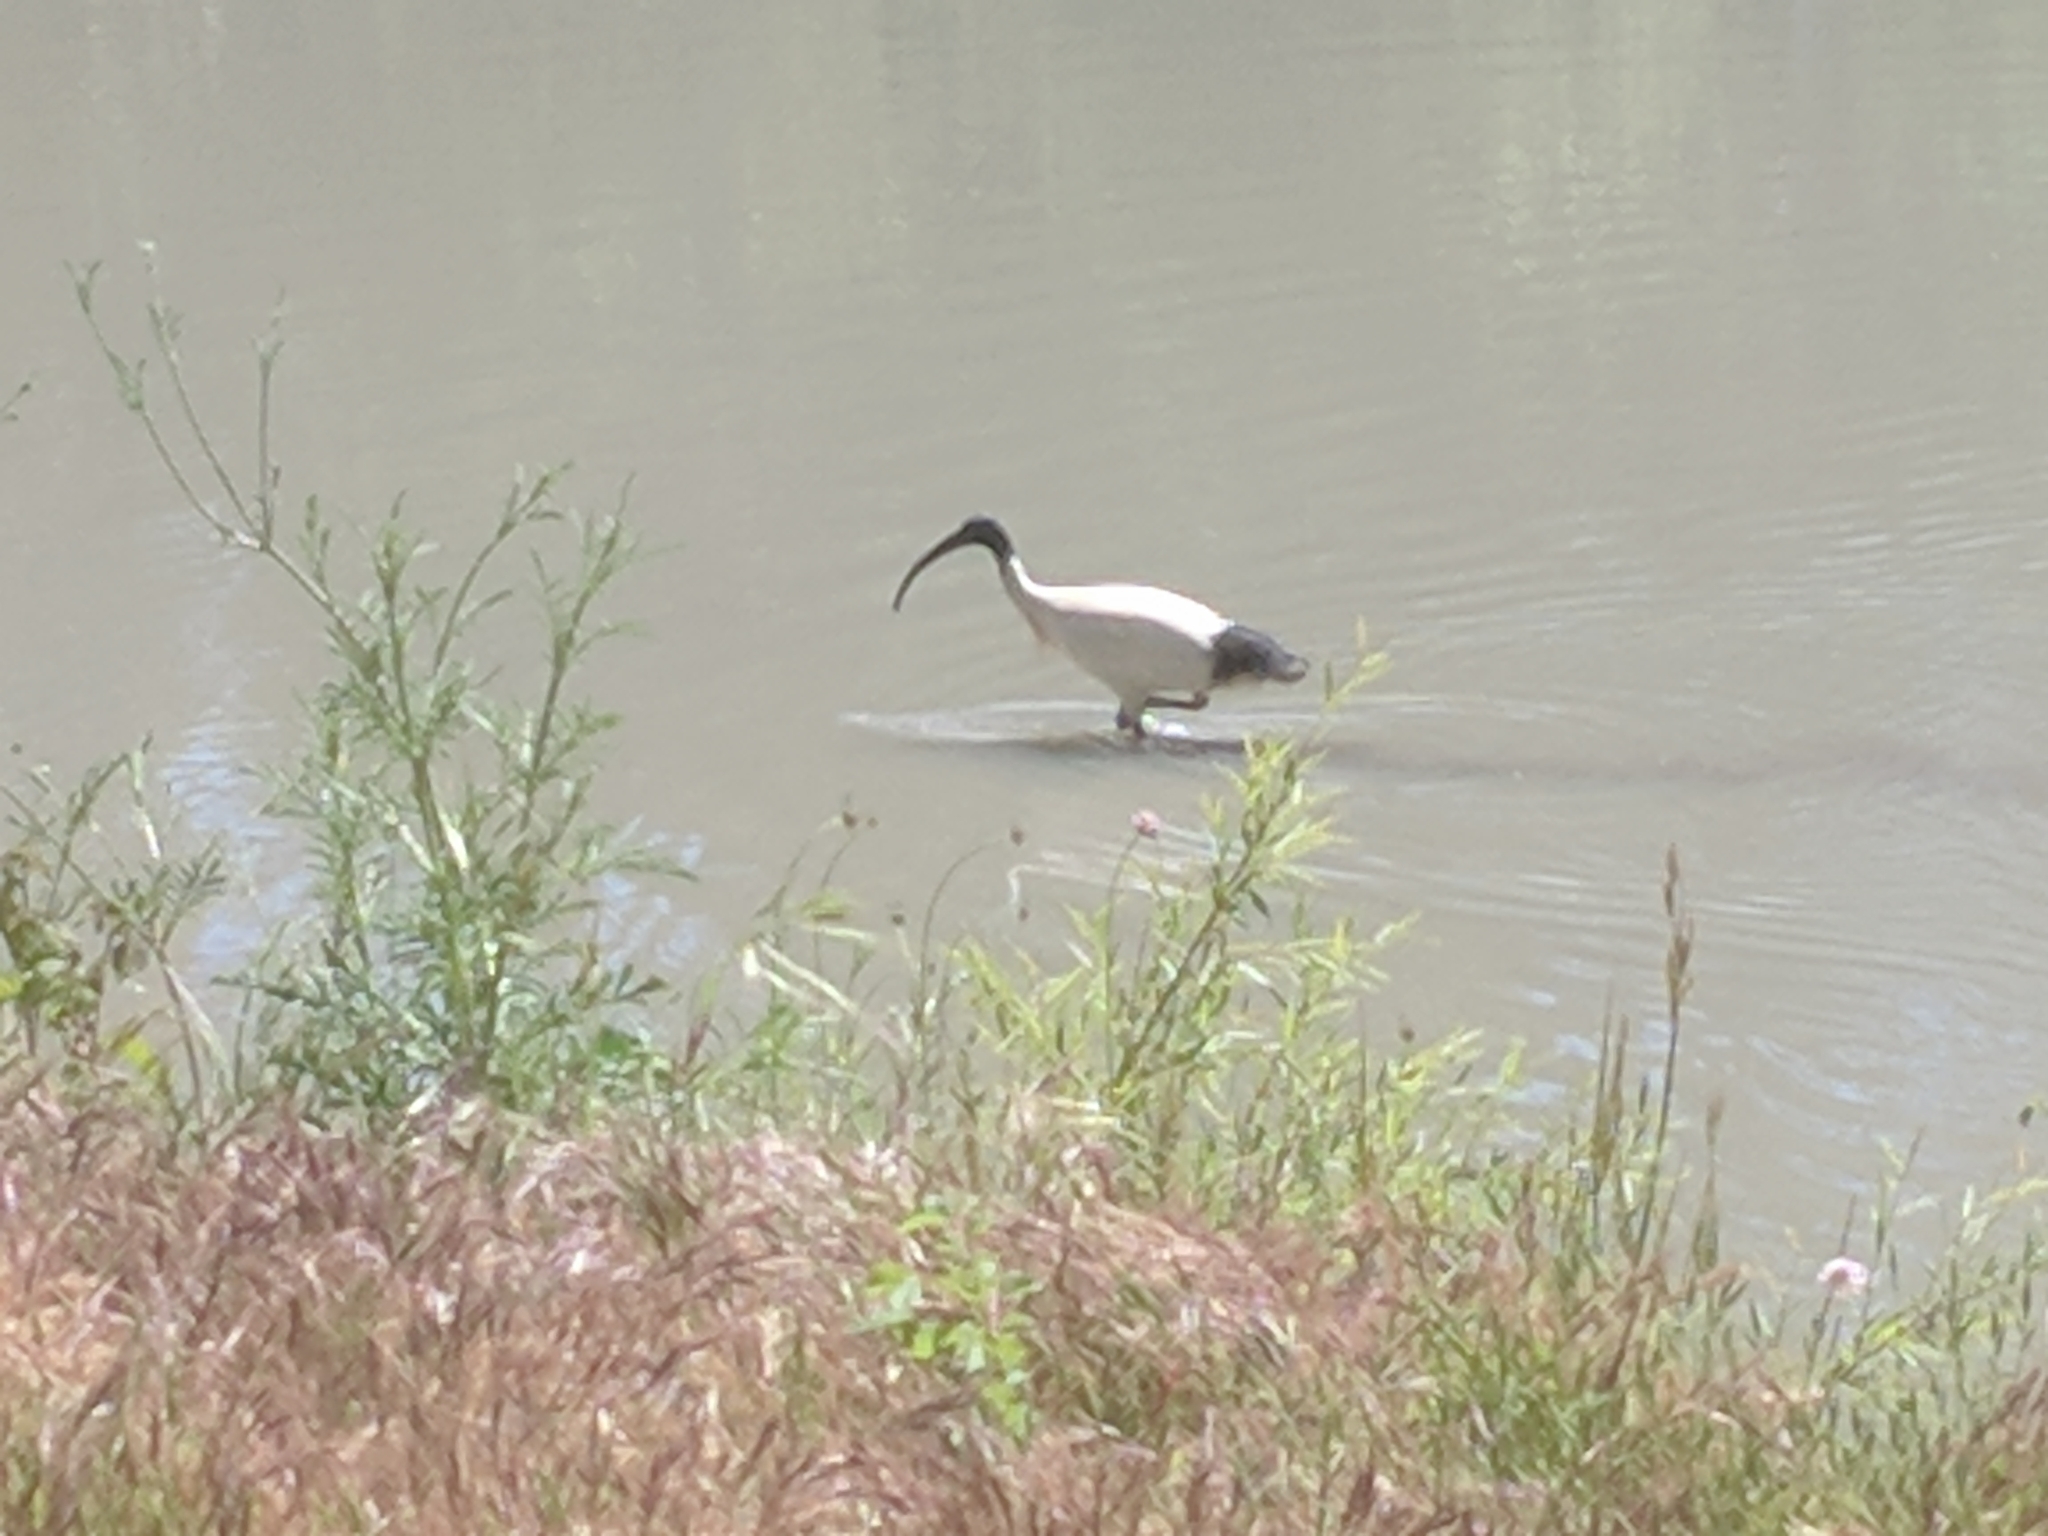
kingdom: Animalia
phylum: Chordata
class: Aves
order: Pelecaniformes
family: Threskiornithidae
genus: Threskiornis
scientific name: Threskiornis molucca
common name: Australian white ibis
